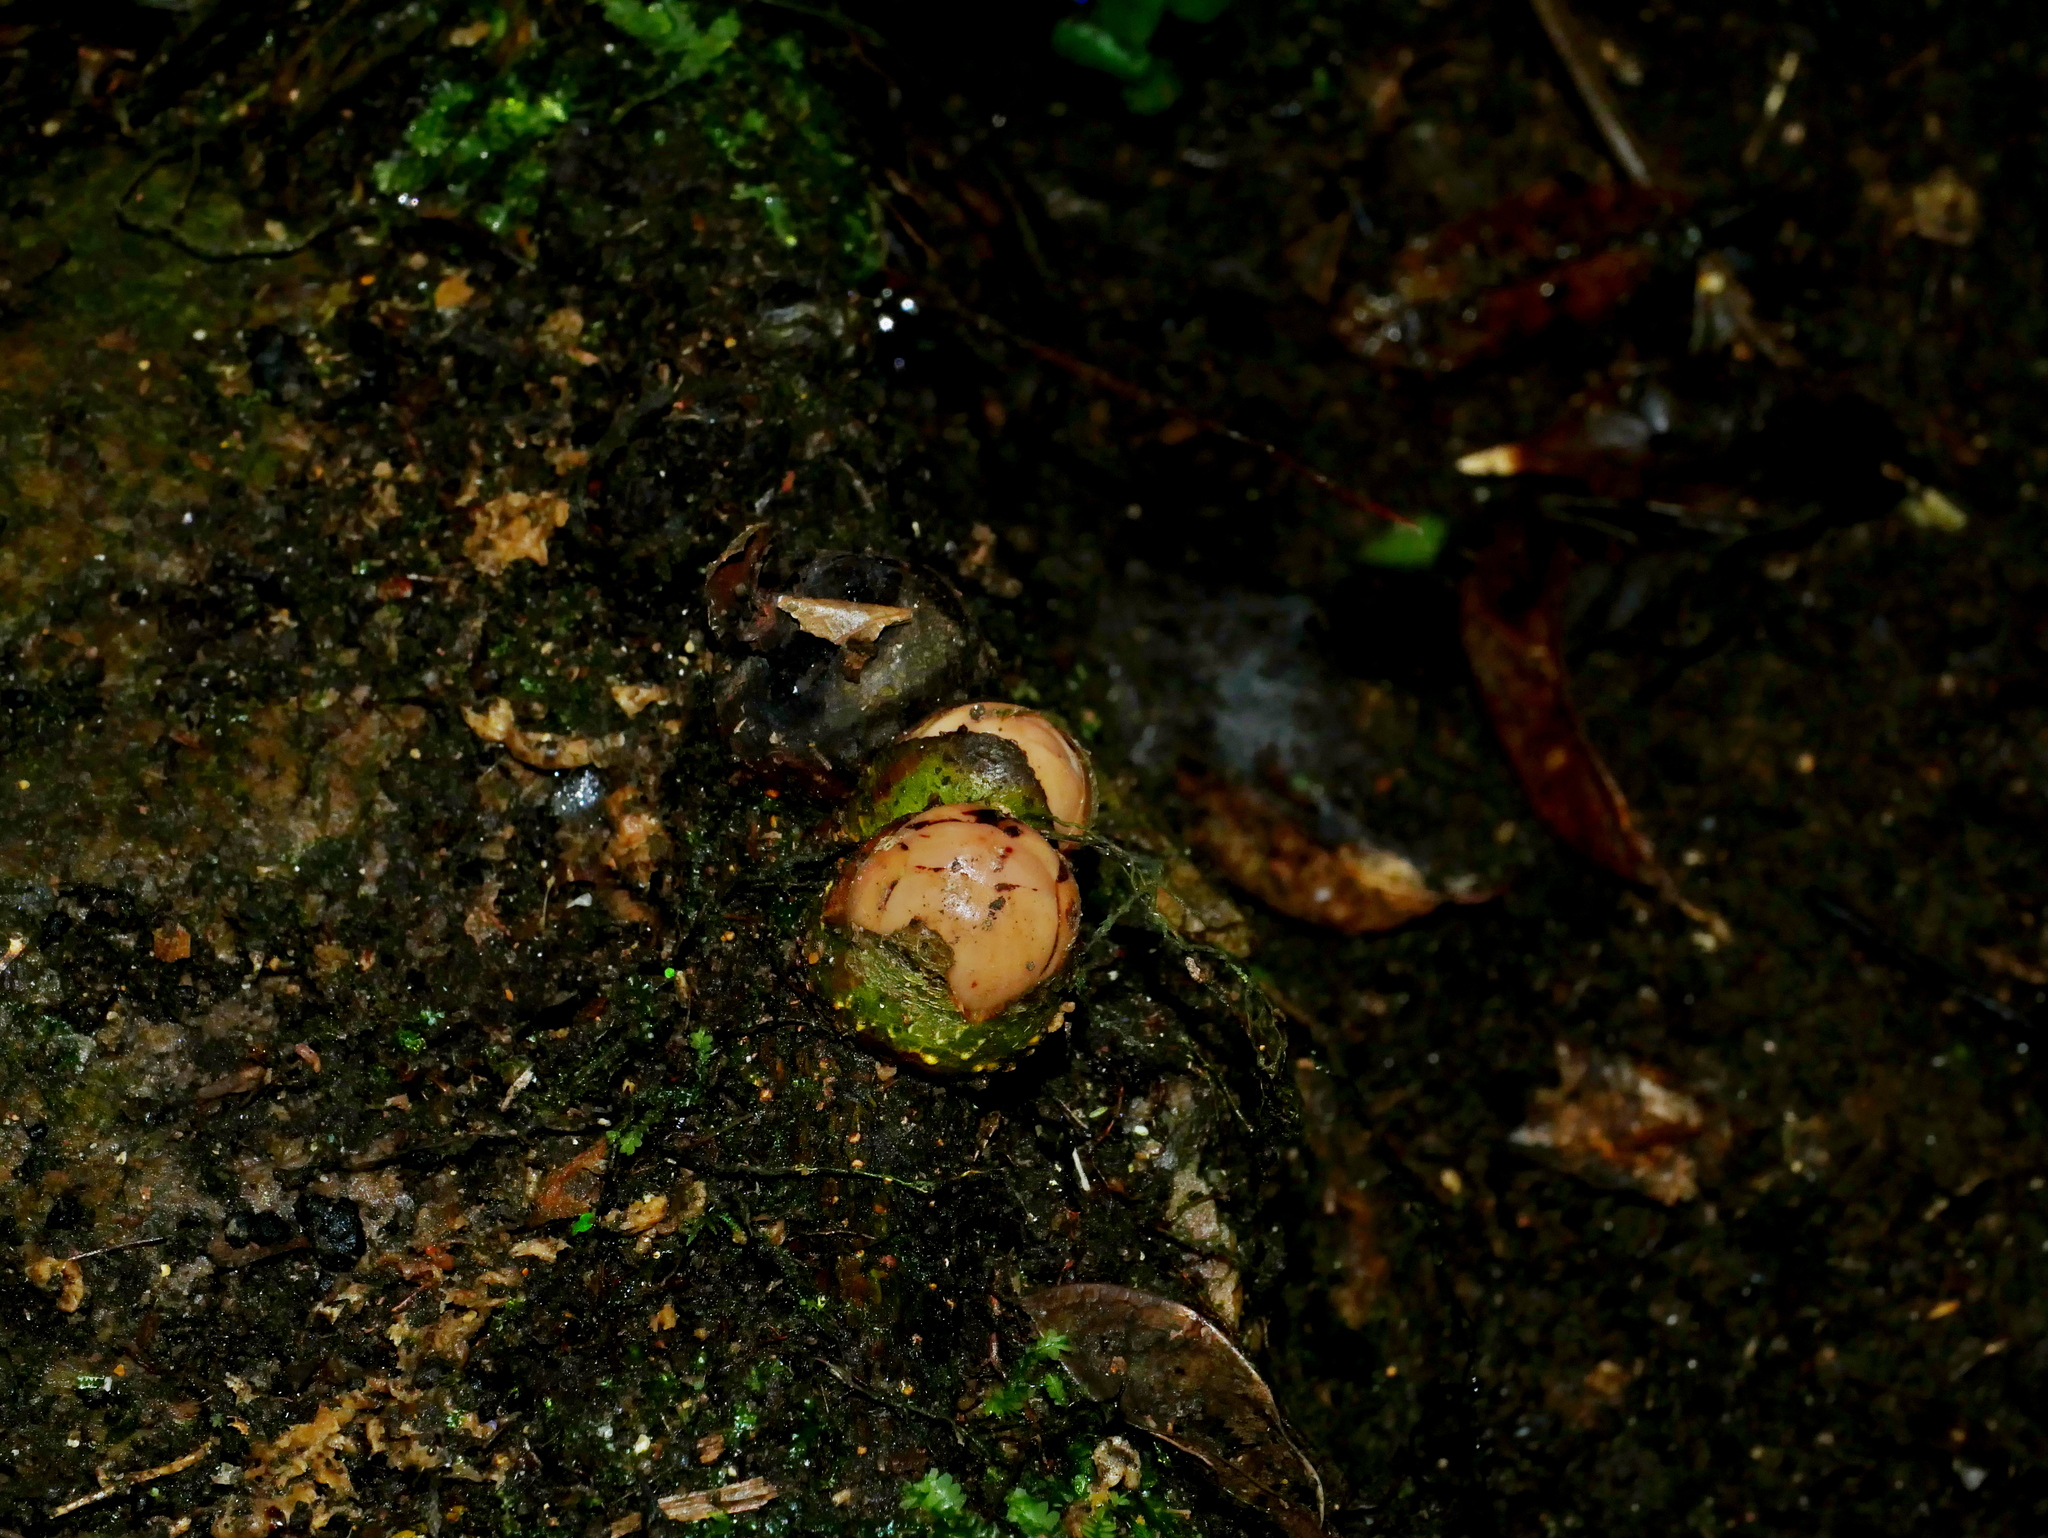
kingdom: Plantae
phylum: Tracheophyta
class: Magnoliopsida
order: Ericales
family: Mitrastemonaceae
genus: Mitrastemon
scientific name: Mitrastemon yamamotoi
